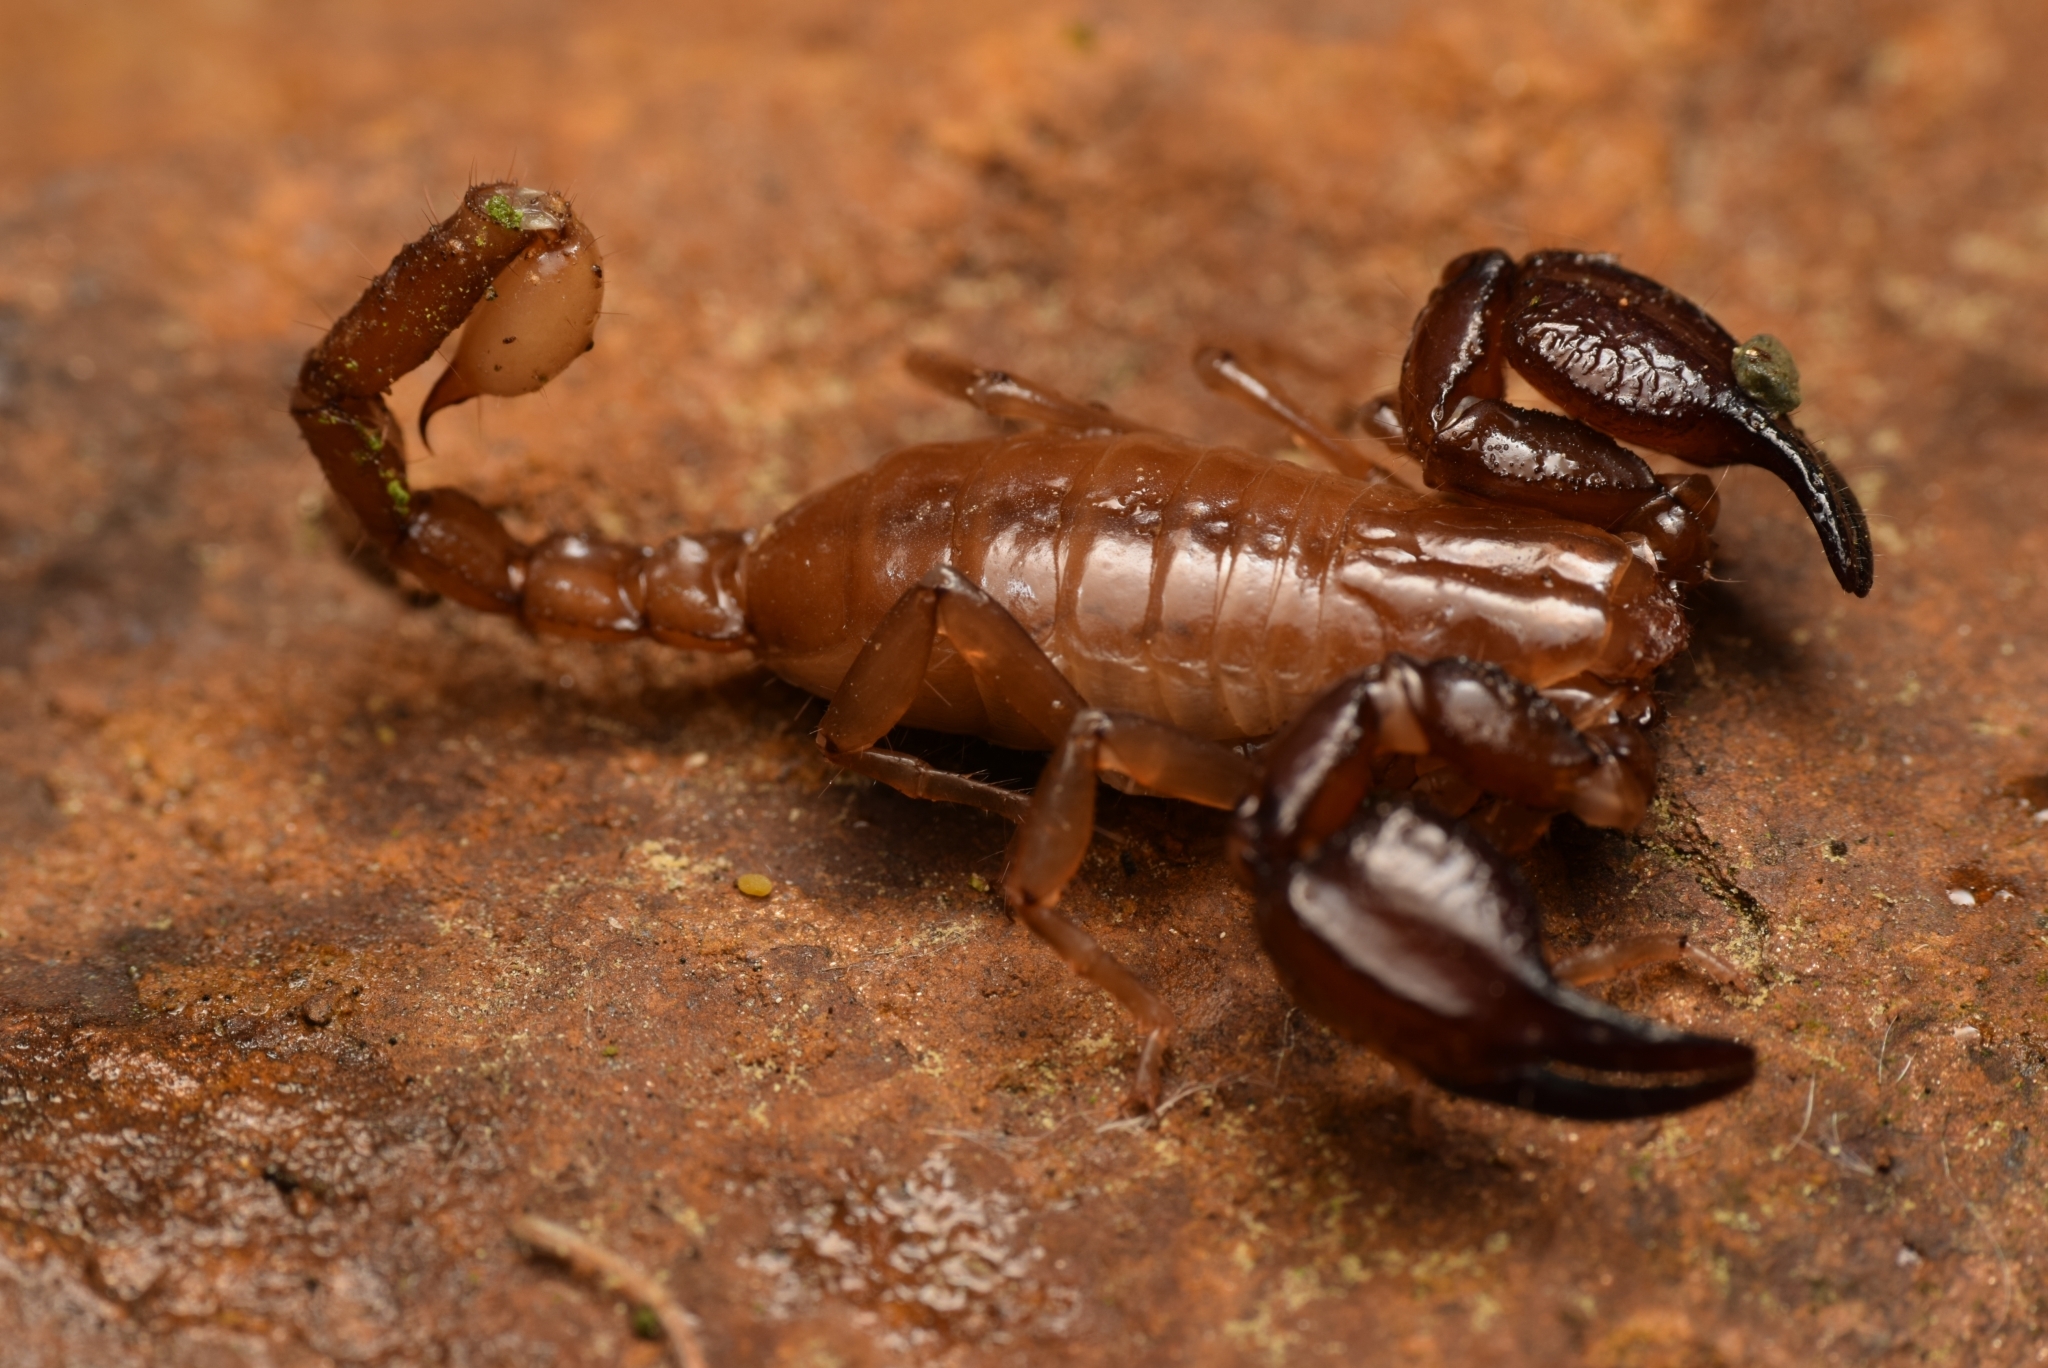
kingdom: Animalia
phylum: Arthropoda
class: Arachnida
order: Scorpiones
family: Belisariidae
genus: Belisarius
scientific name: Belisarius xambeui
